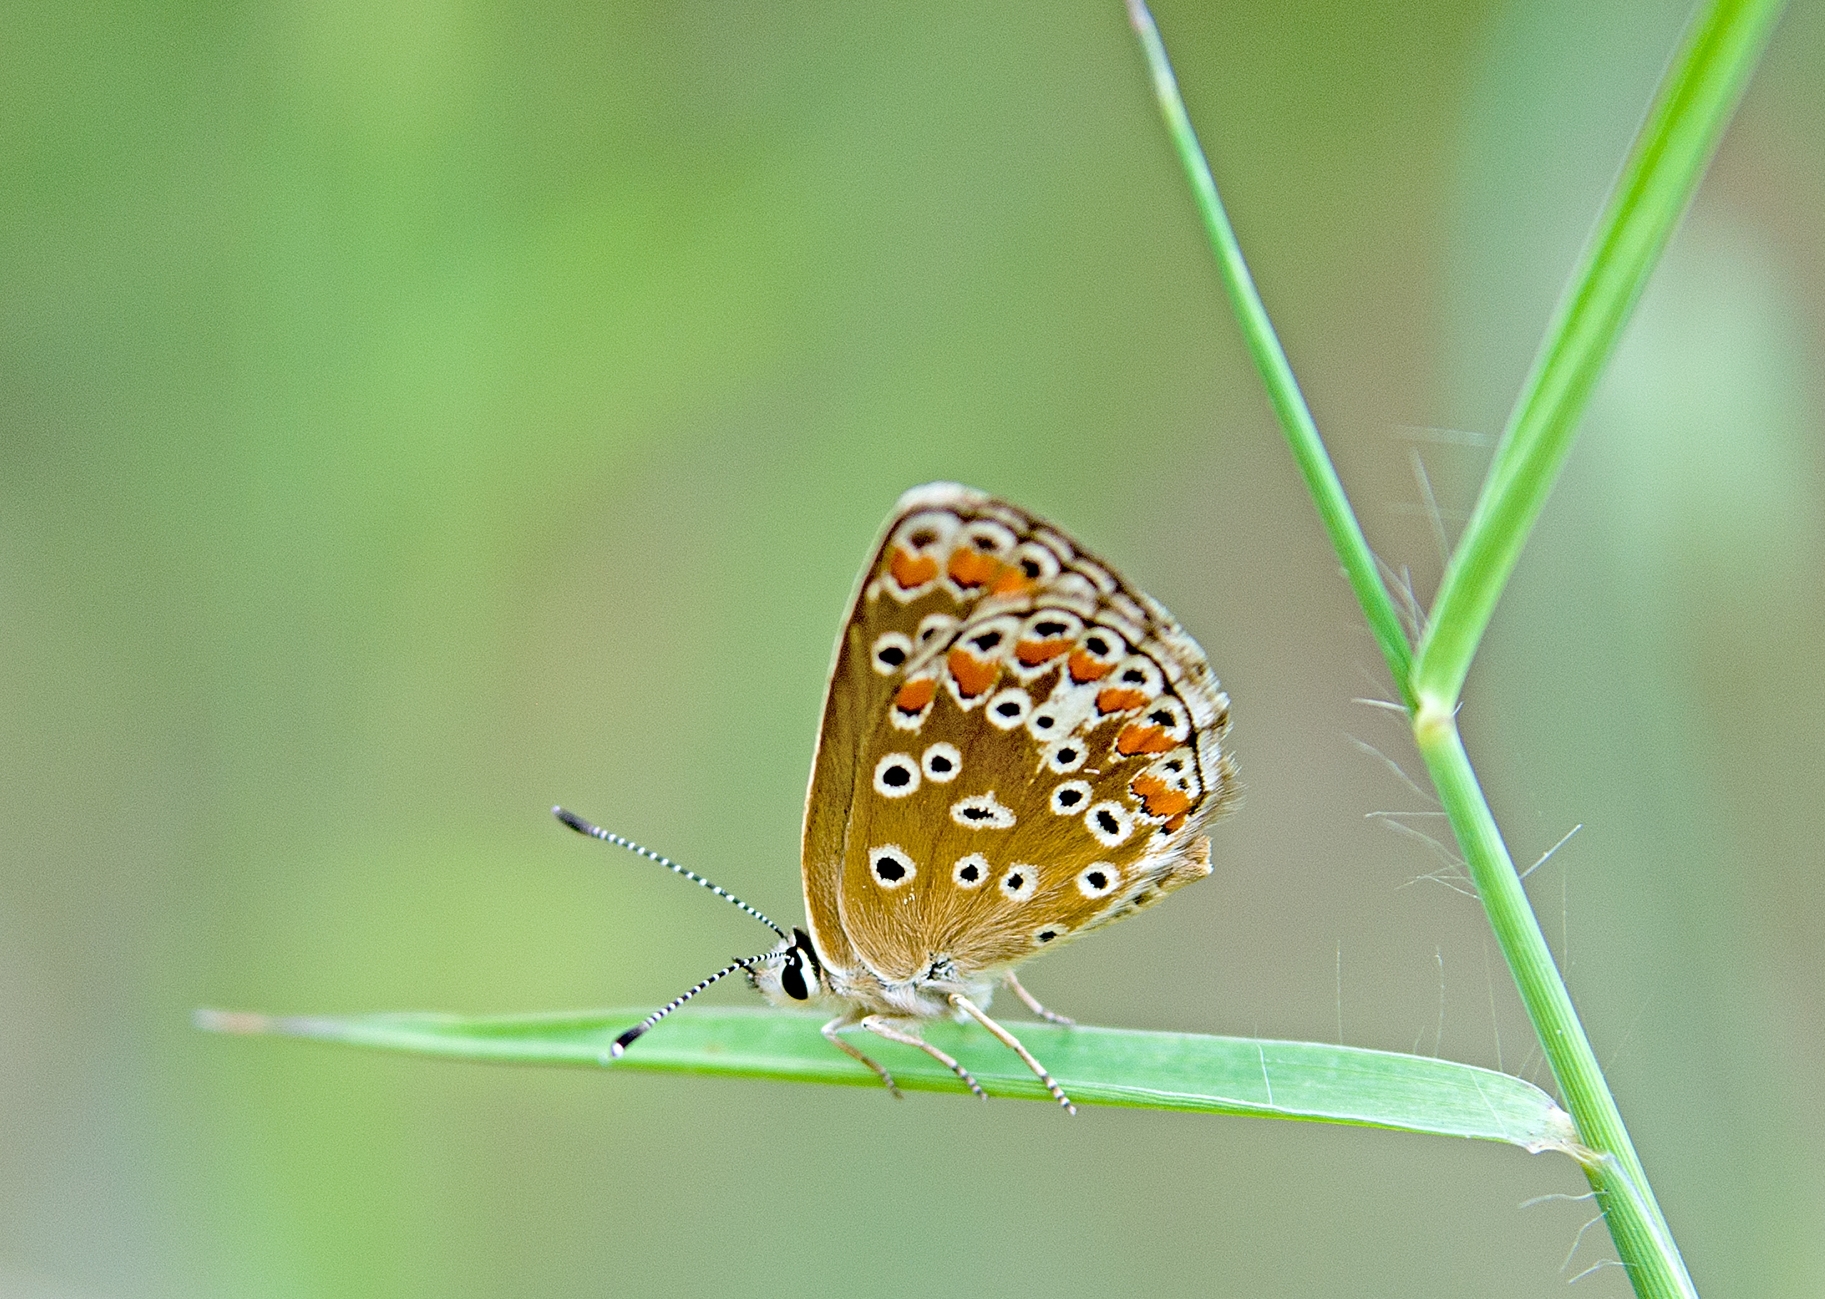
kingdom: Animalia
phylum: Arthropoda
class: Insecta
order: Lepidoptera
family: Lycaenidae
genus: Aricia
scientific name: Aricia agestis
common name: Brown argus
